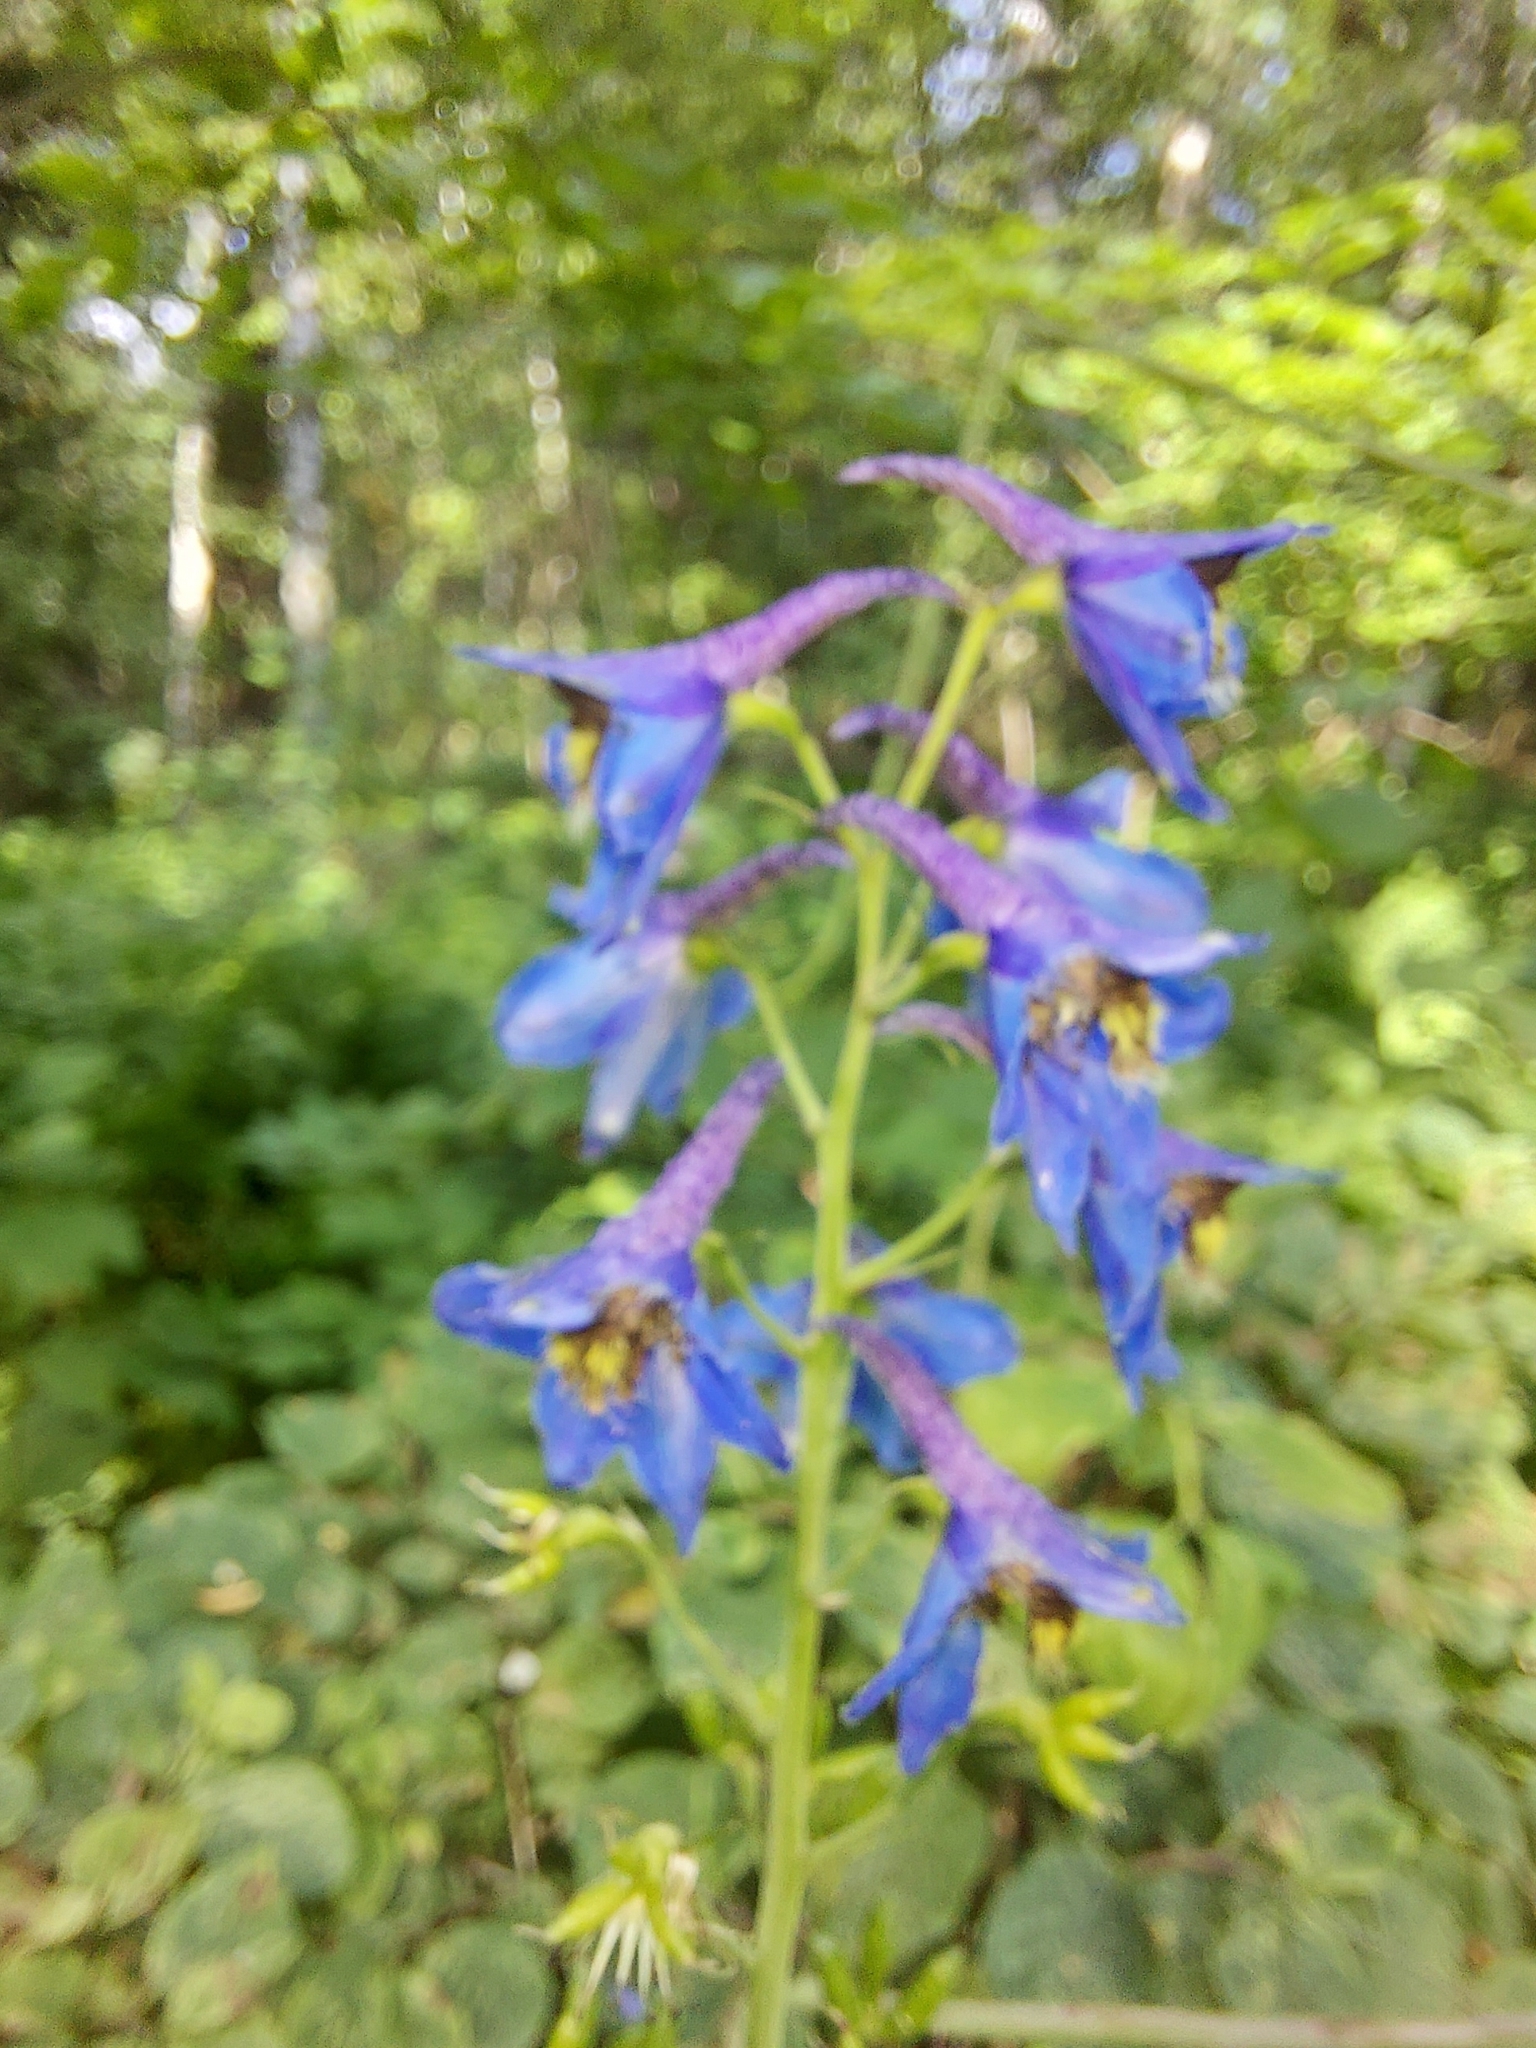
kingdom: Plantae
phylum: Tracheophyta
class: Magnoliopsida
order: Ranunculales
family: Ranunculaceae
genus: Delphinium
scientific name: Delphinium elatum
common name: Candle larkspur
